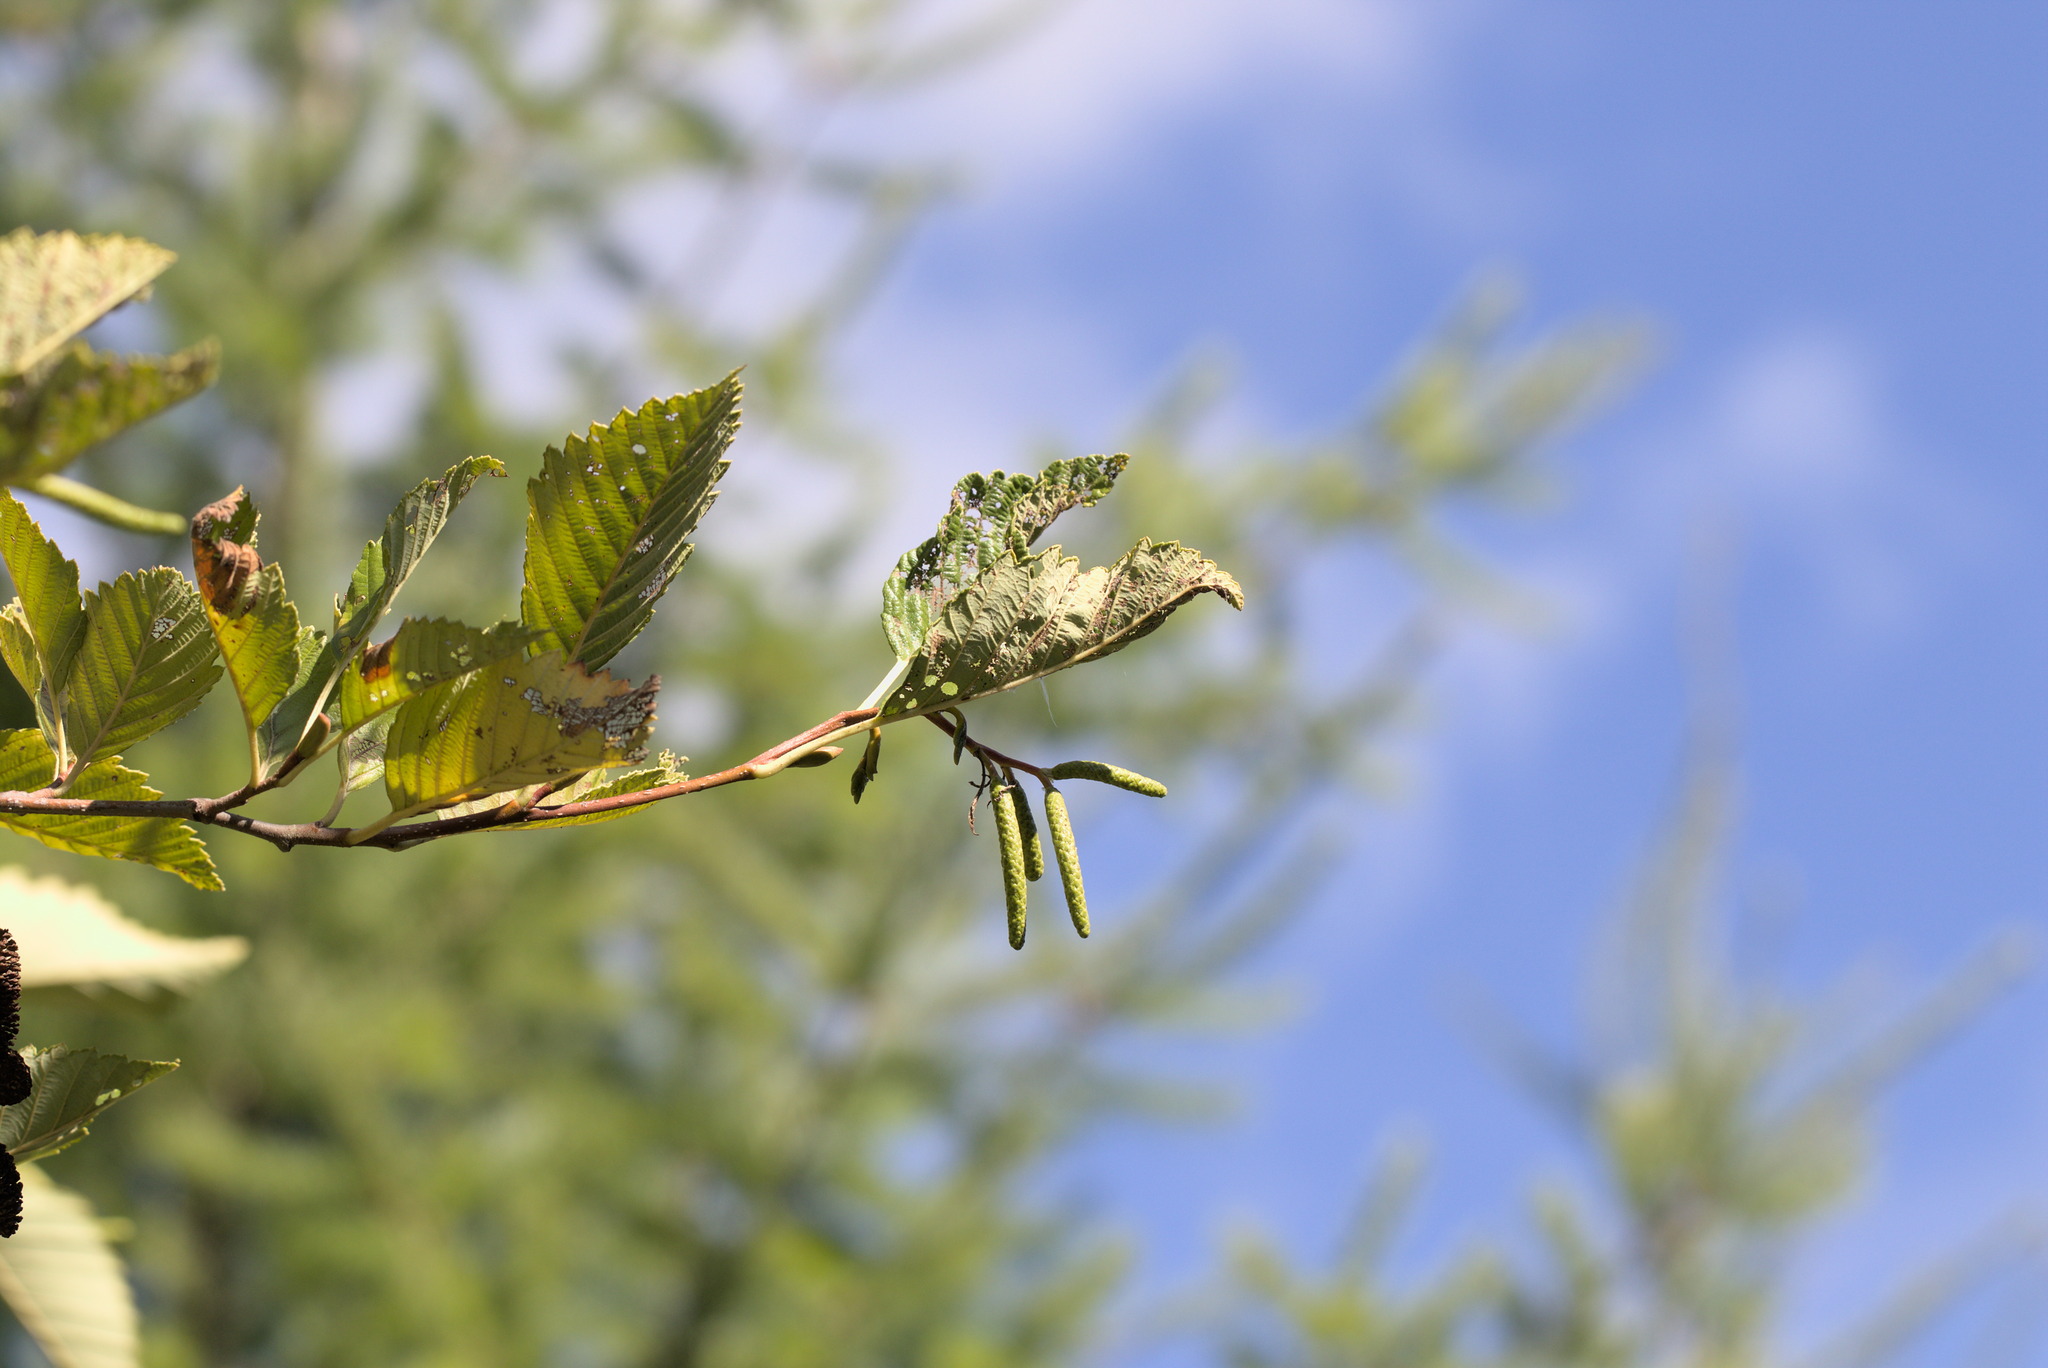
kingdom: Plantae
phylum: Tracheophyta
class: Magnoliopsida
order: Fagales
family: Betulaceae
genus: Alnus
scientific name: Alnus rubra
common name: Red alder
